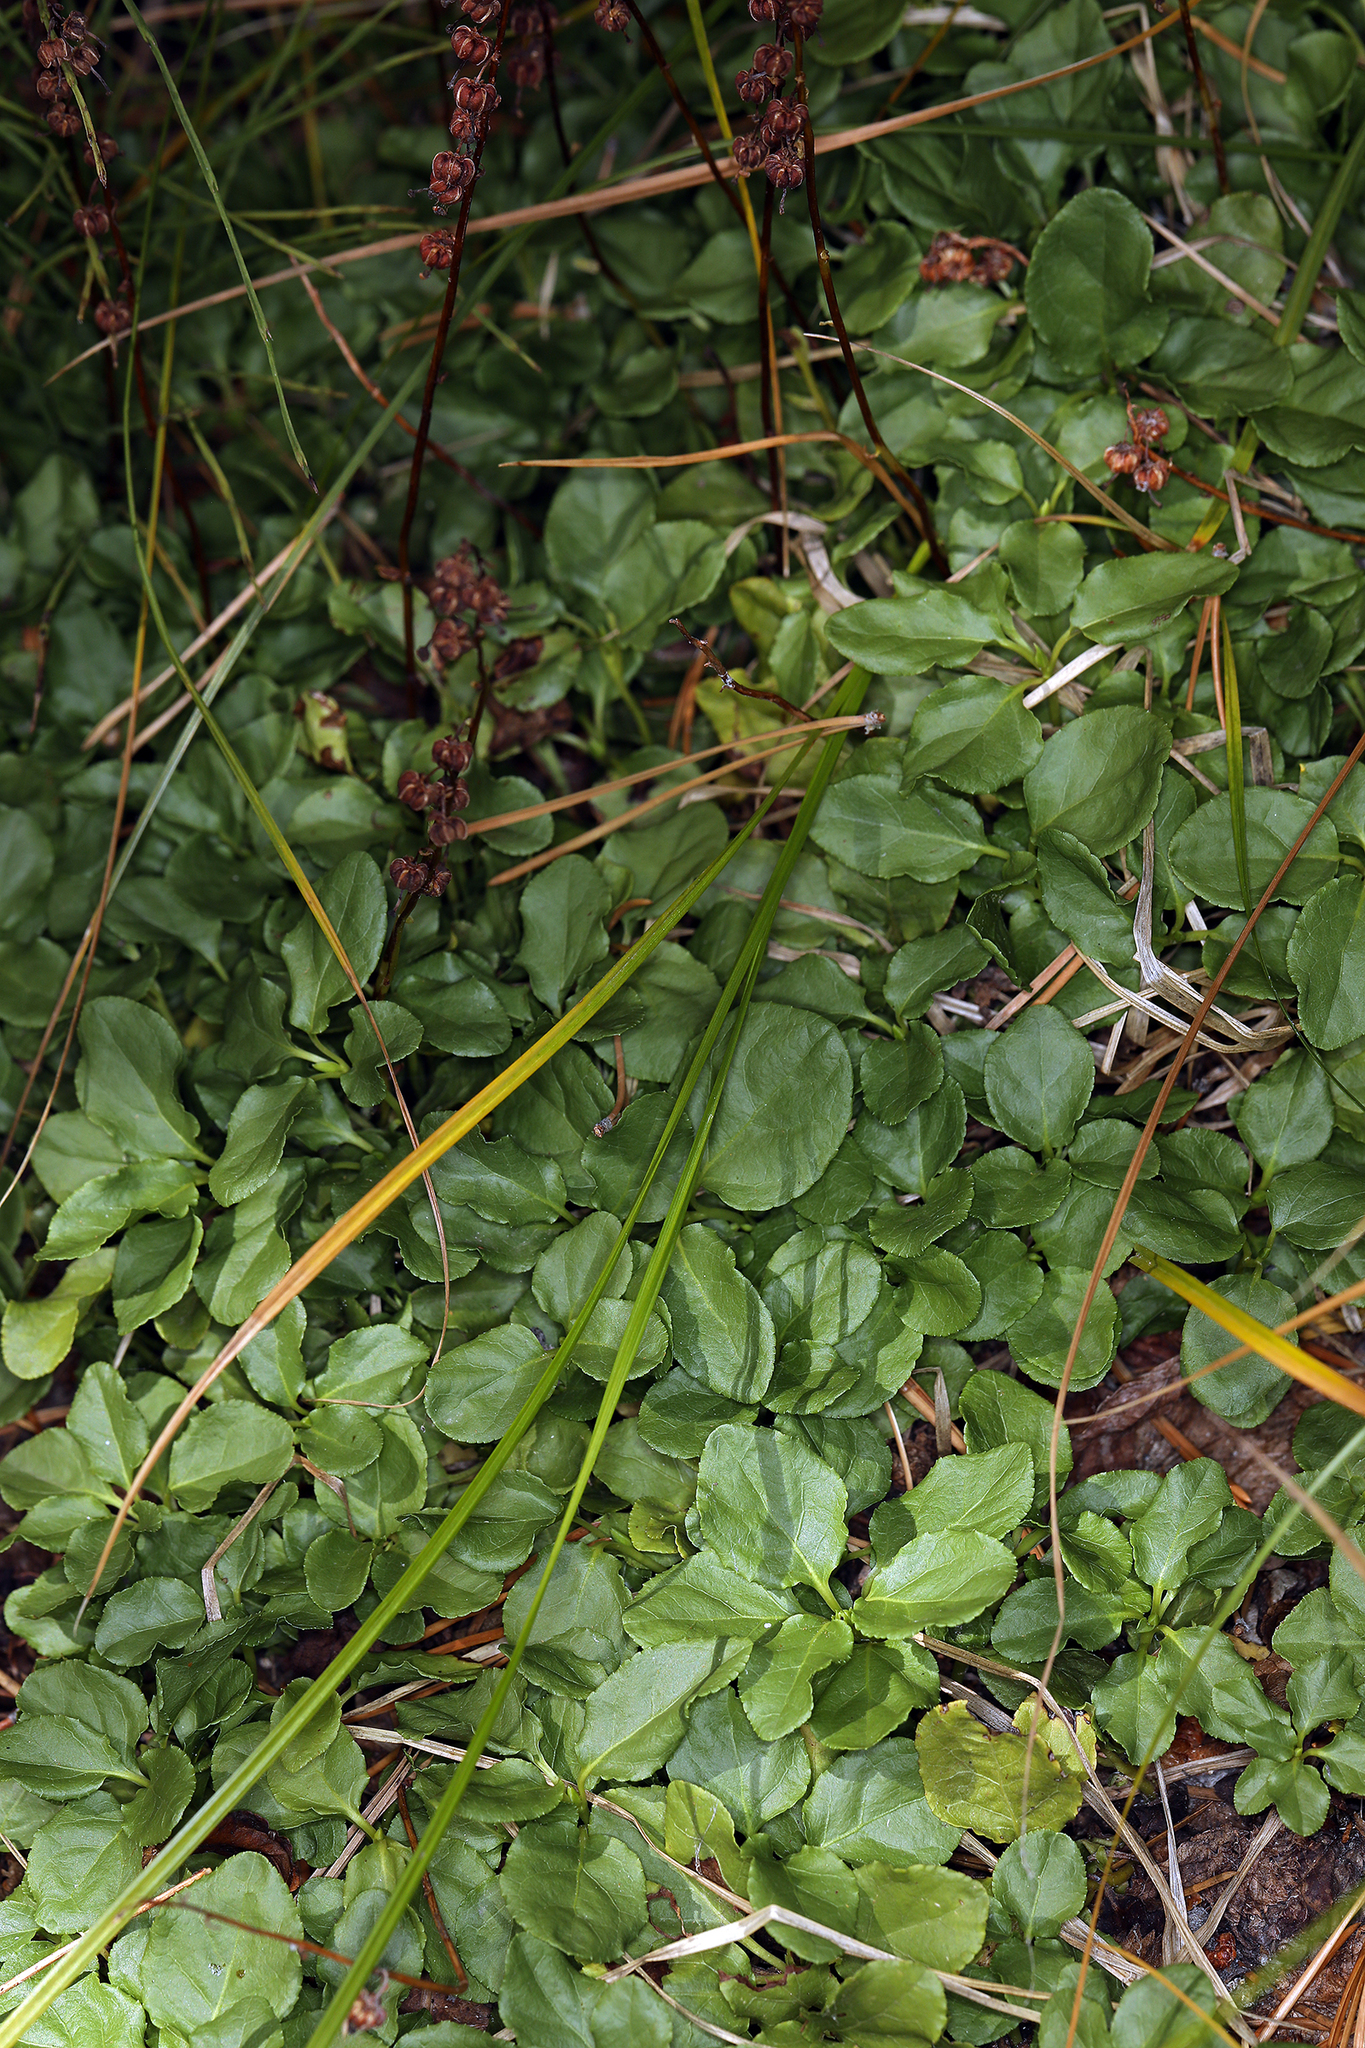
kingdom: Plantae
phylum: Tracheophyta
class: Magnoliopsida
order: Ericales
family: Ericaceae
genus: Pyrola
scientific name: Pyrola asarifolia
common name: Bog wintergreen
